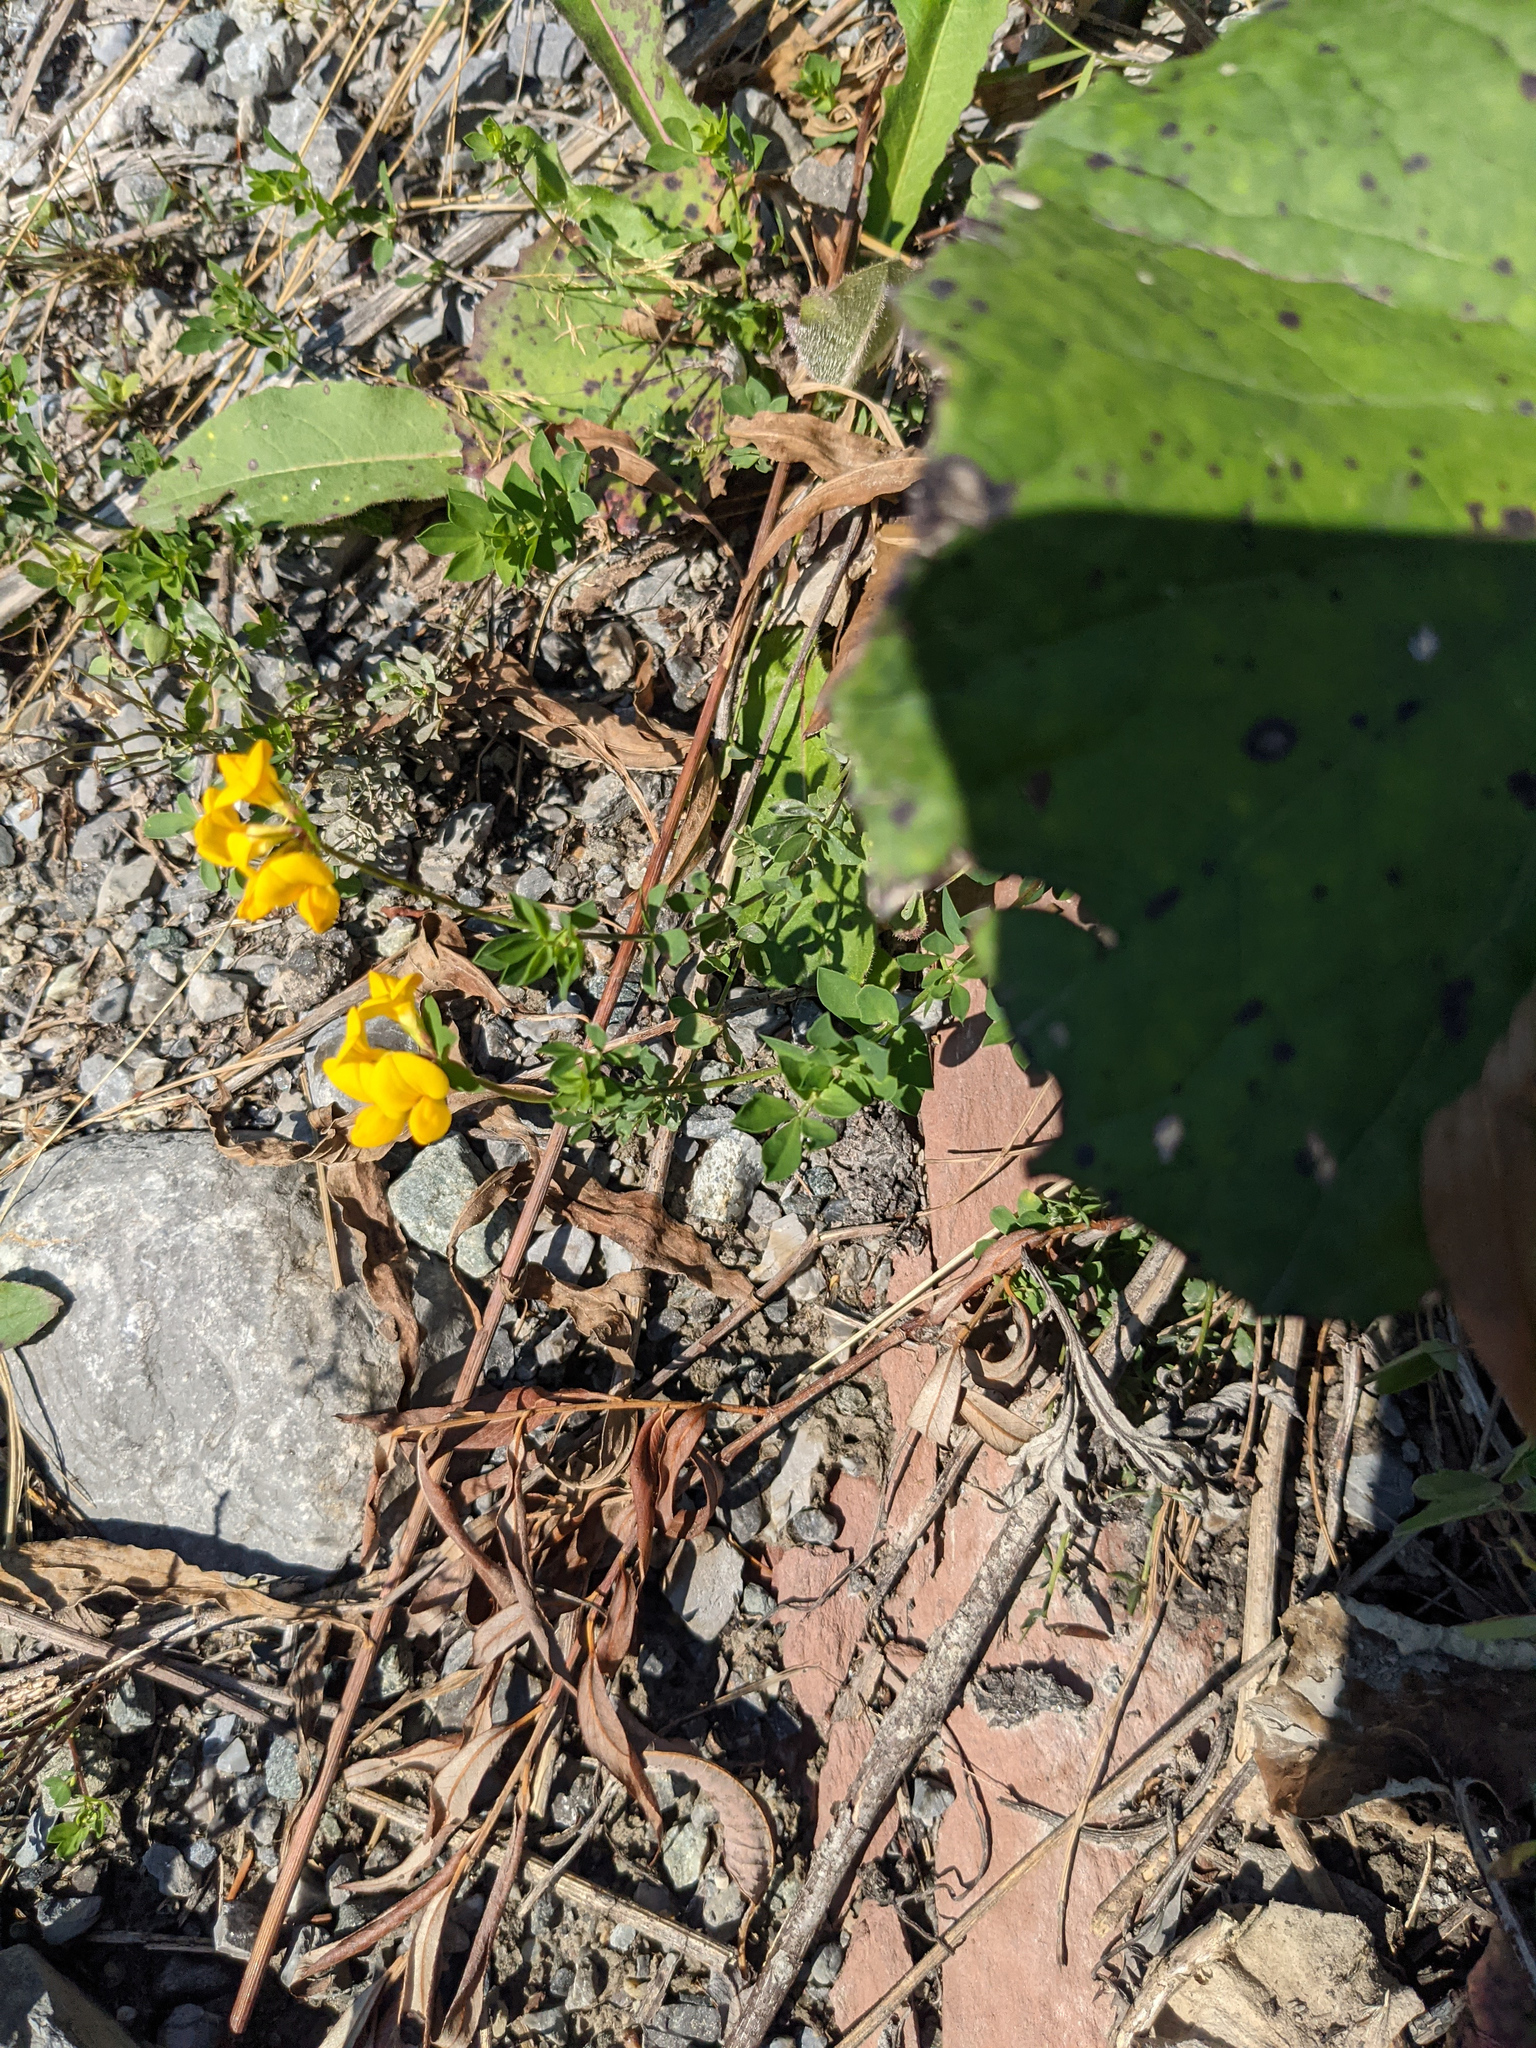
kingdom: Plantae
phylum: Tracheophyta
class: Magnoliopsida
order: Fabales
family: Fabaceae
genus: Lotus
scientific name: Lotus corniculatus
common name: Common bird's-foot-trefoil
